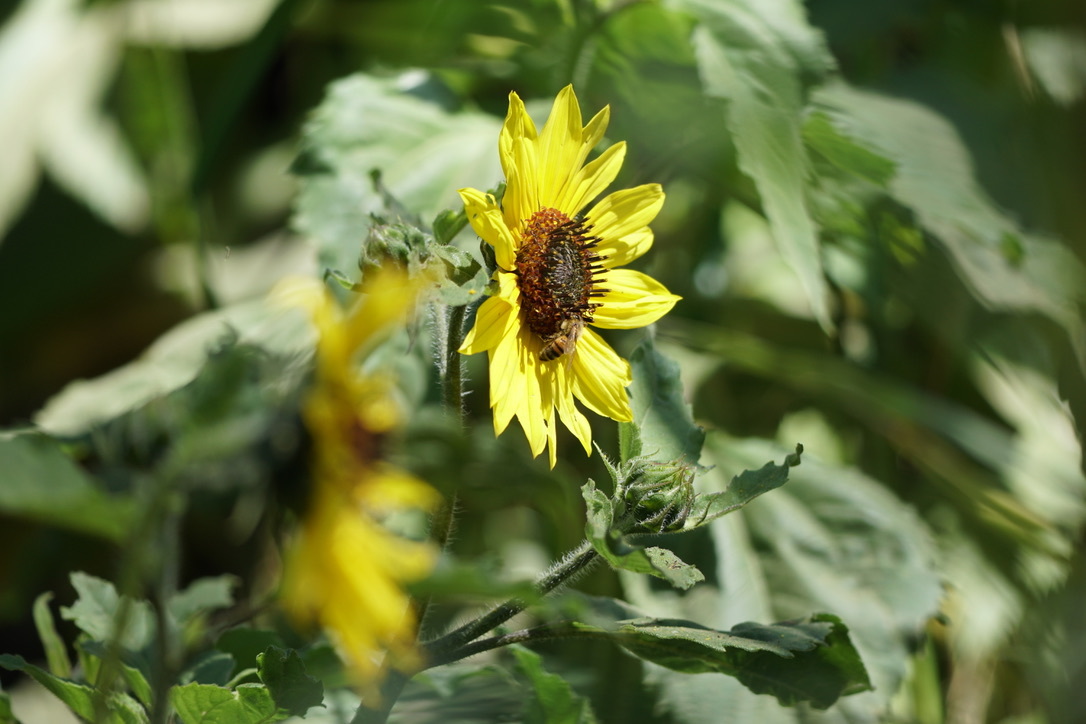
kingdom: Plantae
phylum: Tracheophyta
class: Magnoliopsida
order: Asterales
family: Asteraceae
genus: Helianthus
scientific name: Helianthus annuus
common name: Sunflower
